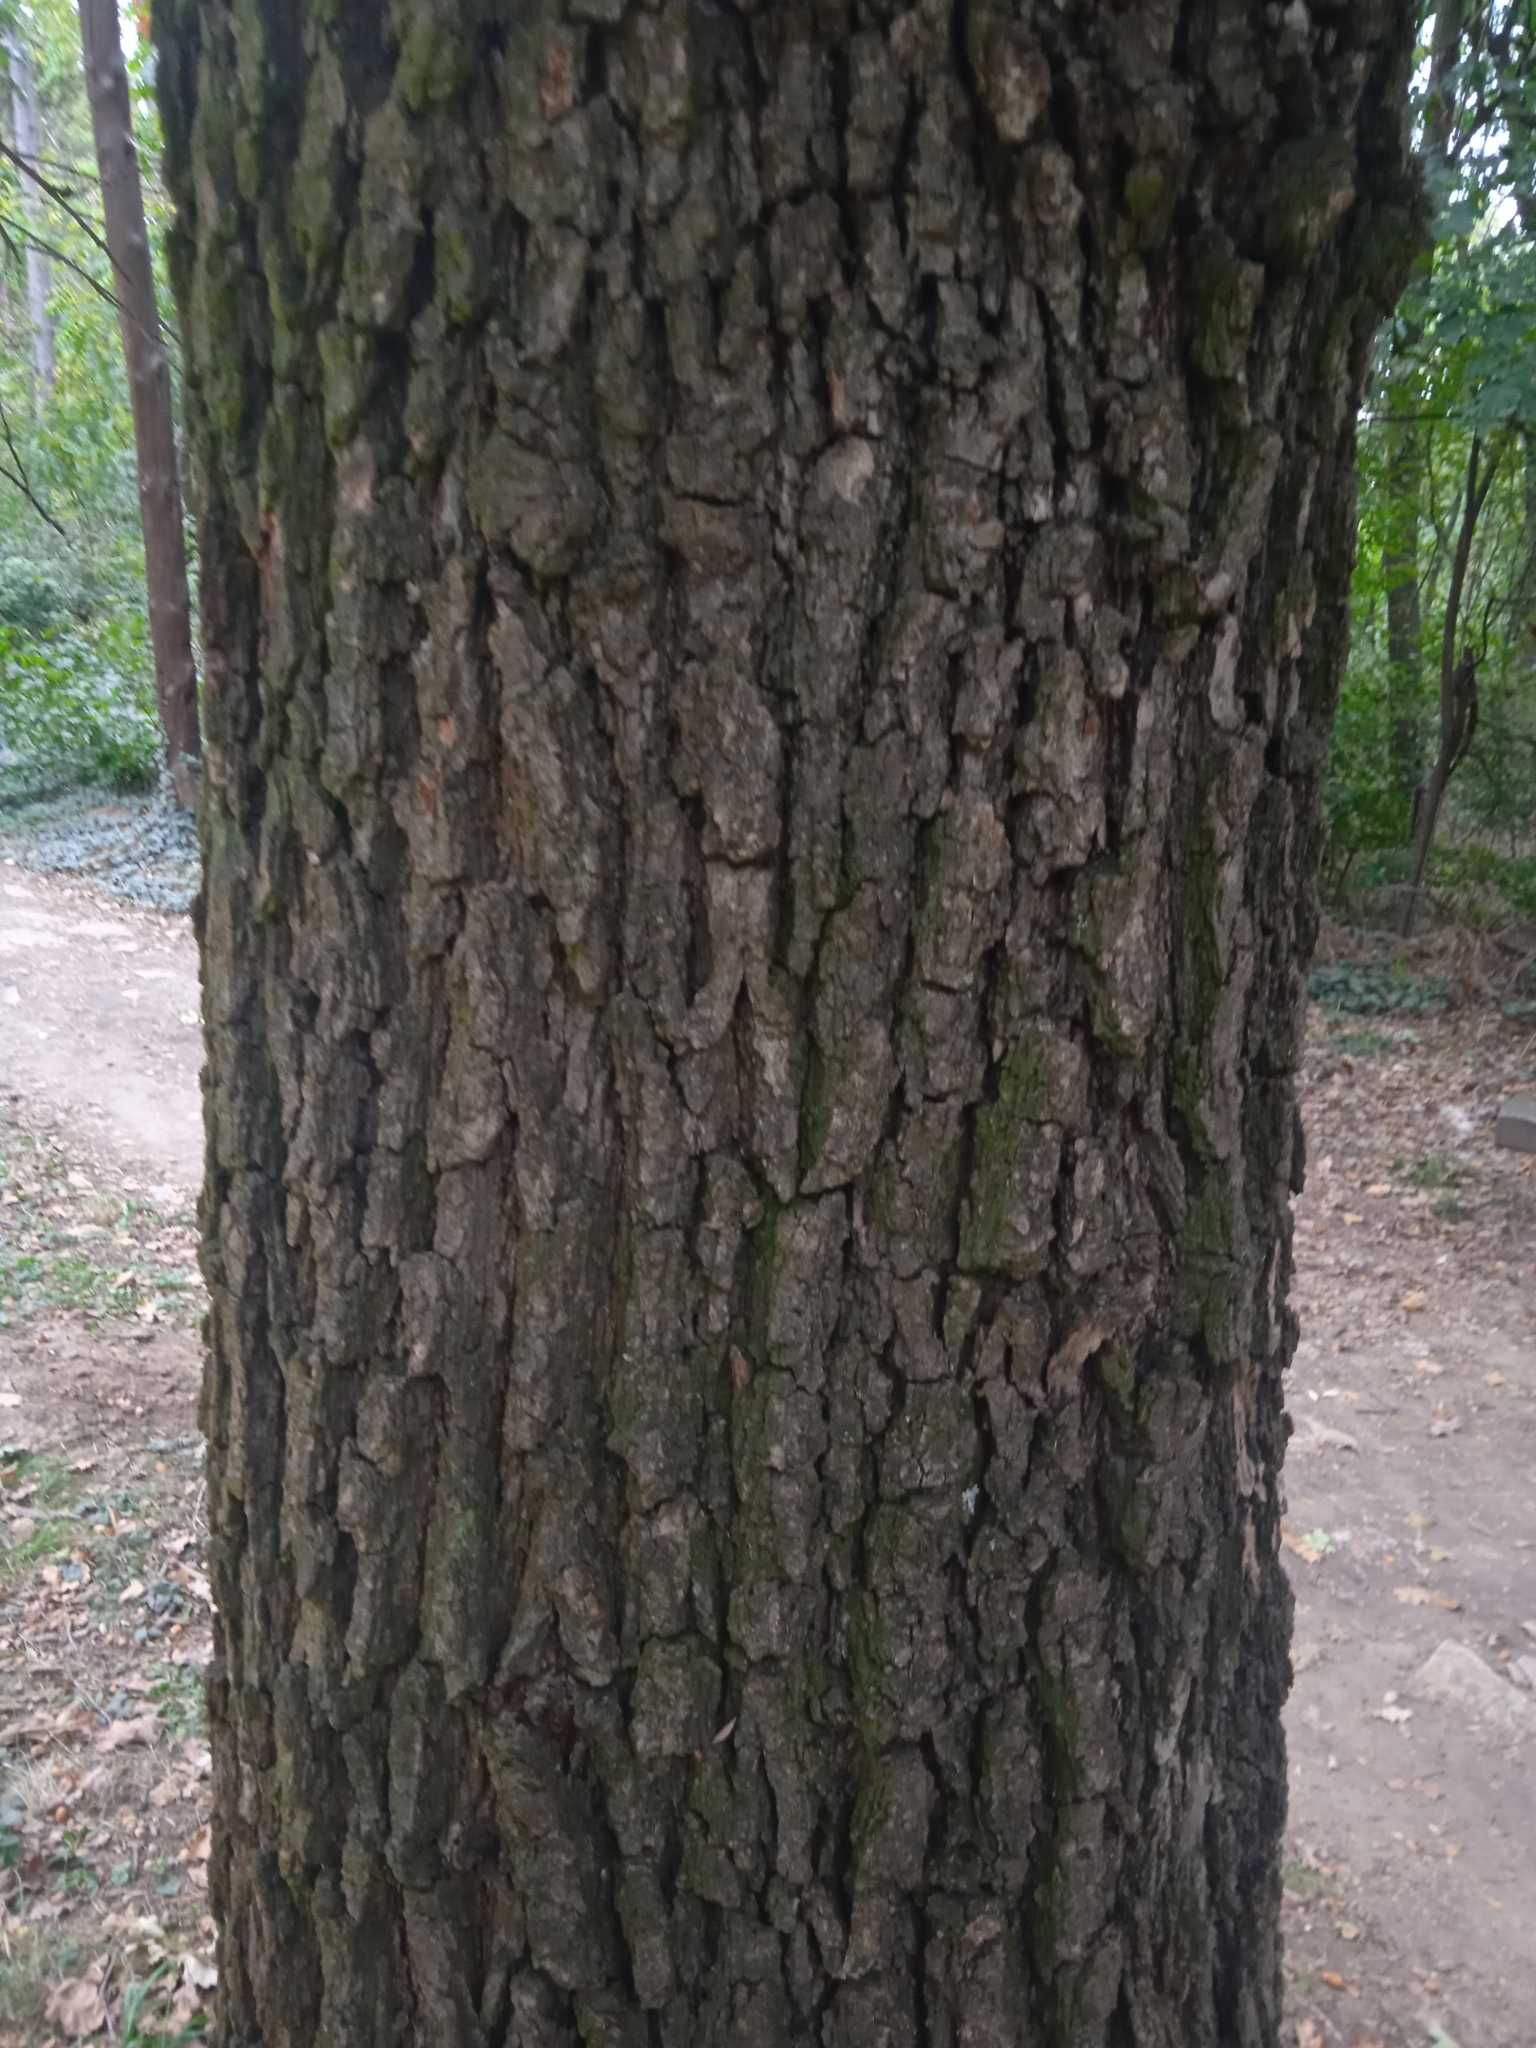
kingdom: Plantae
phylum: Tracheophyta
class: Magnoliopsida
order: Fagales
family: Fagaceae
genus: Quercus
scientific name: Quercus petraea
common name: Sessile oak
